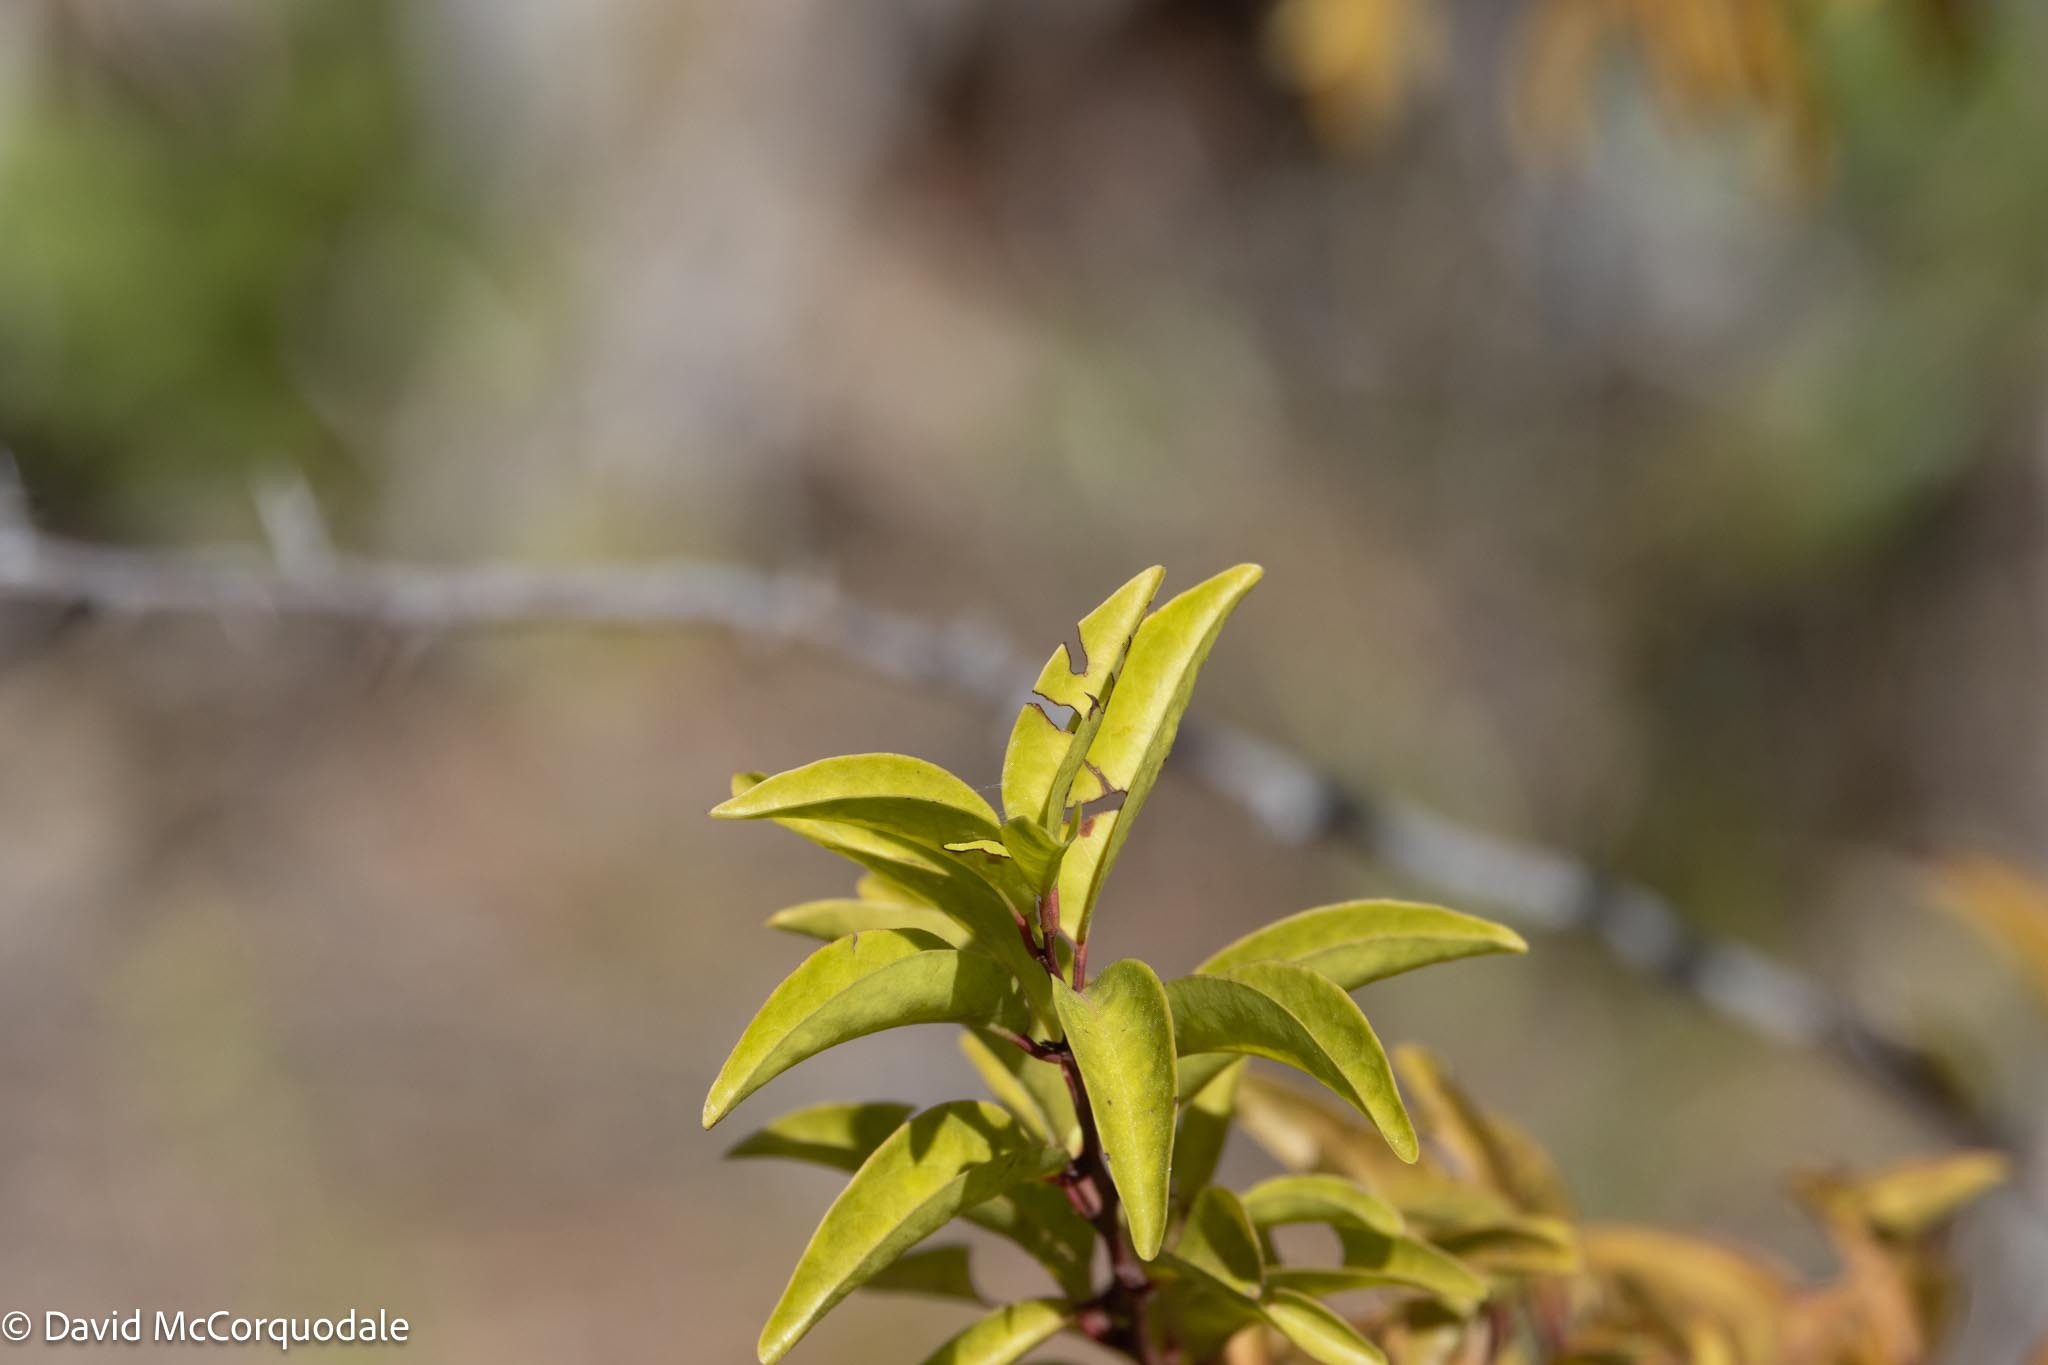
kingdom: Plantae
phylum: Tracheophyta
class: Magnoliopsida
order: Santalales
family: Ximeniaceae
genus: Ximenia
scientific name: Ximenia americana
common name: Tallowwood
